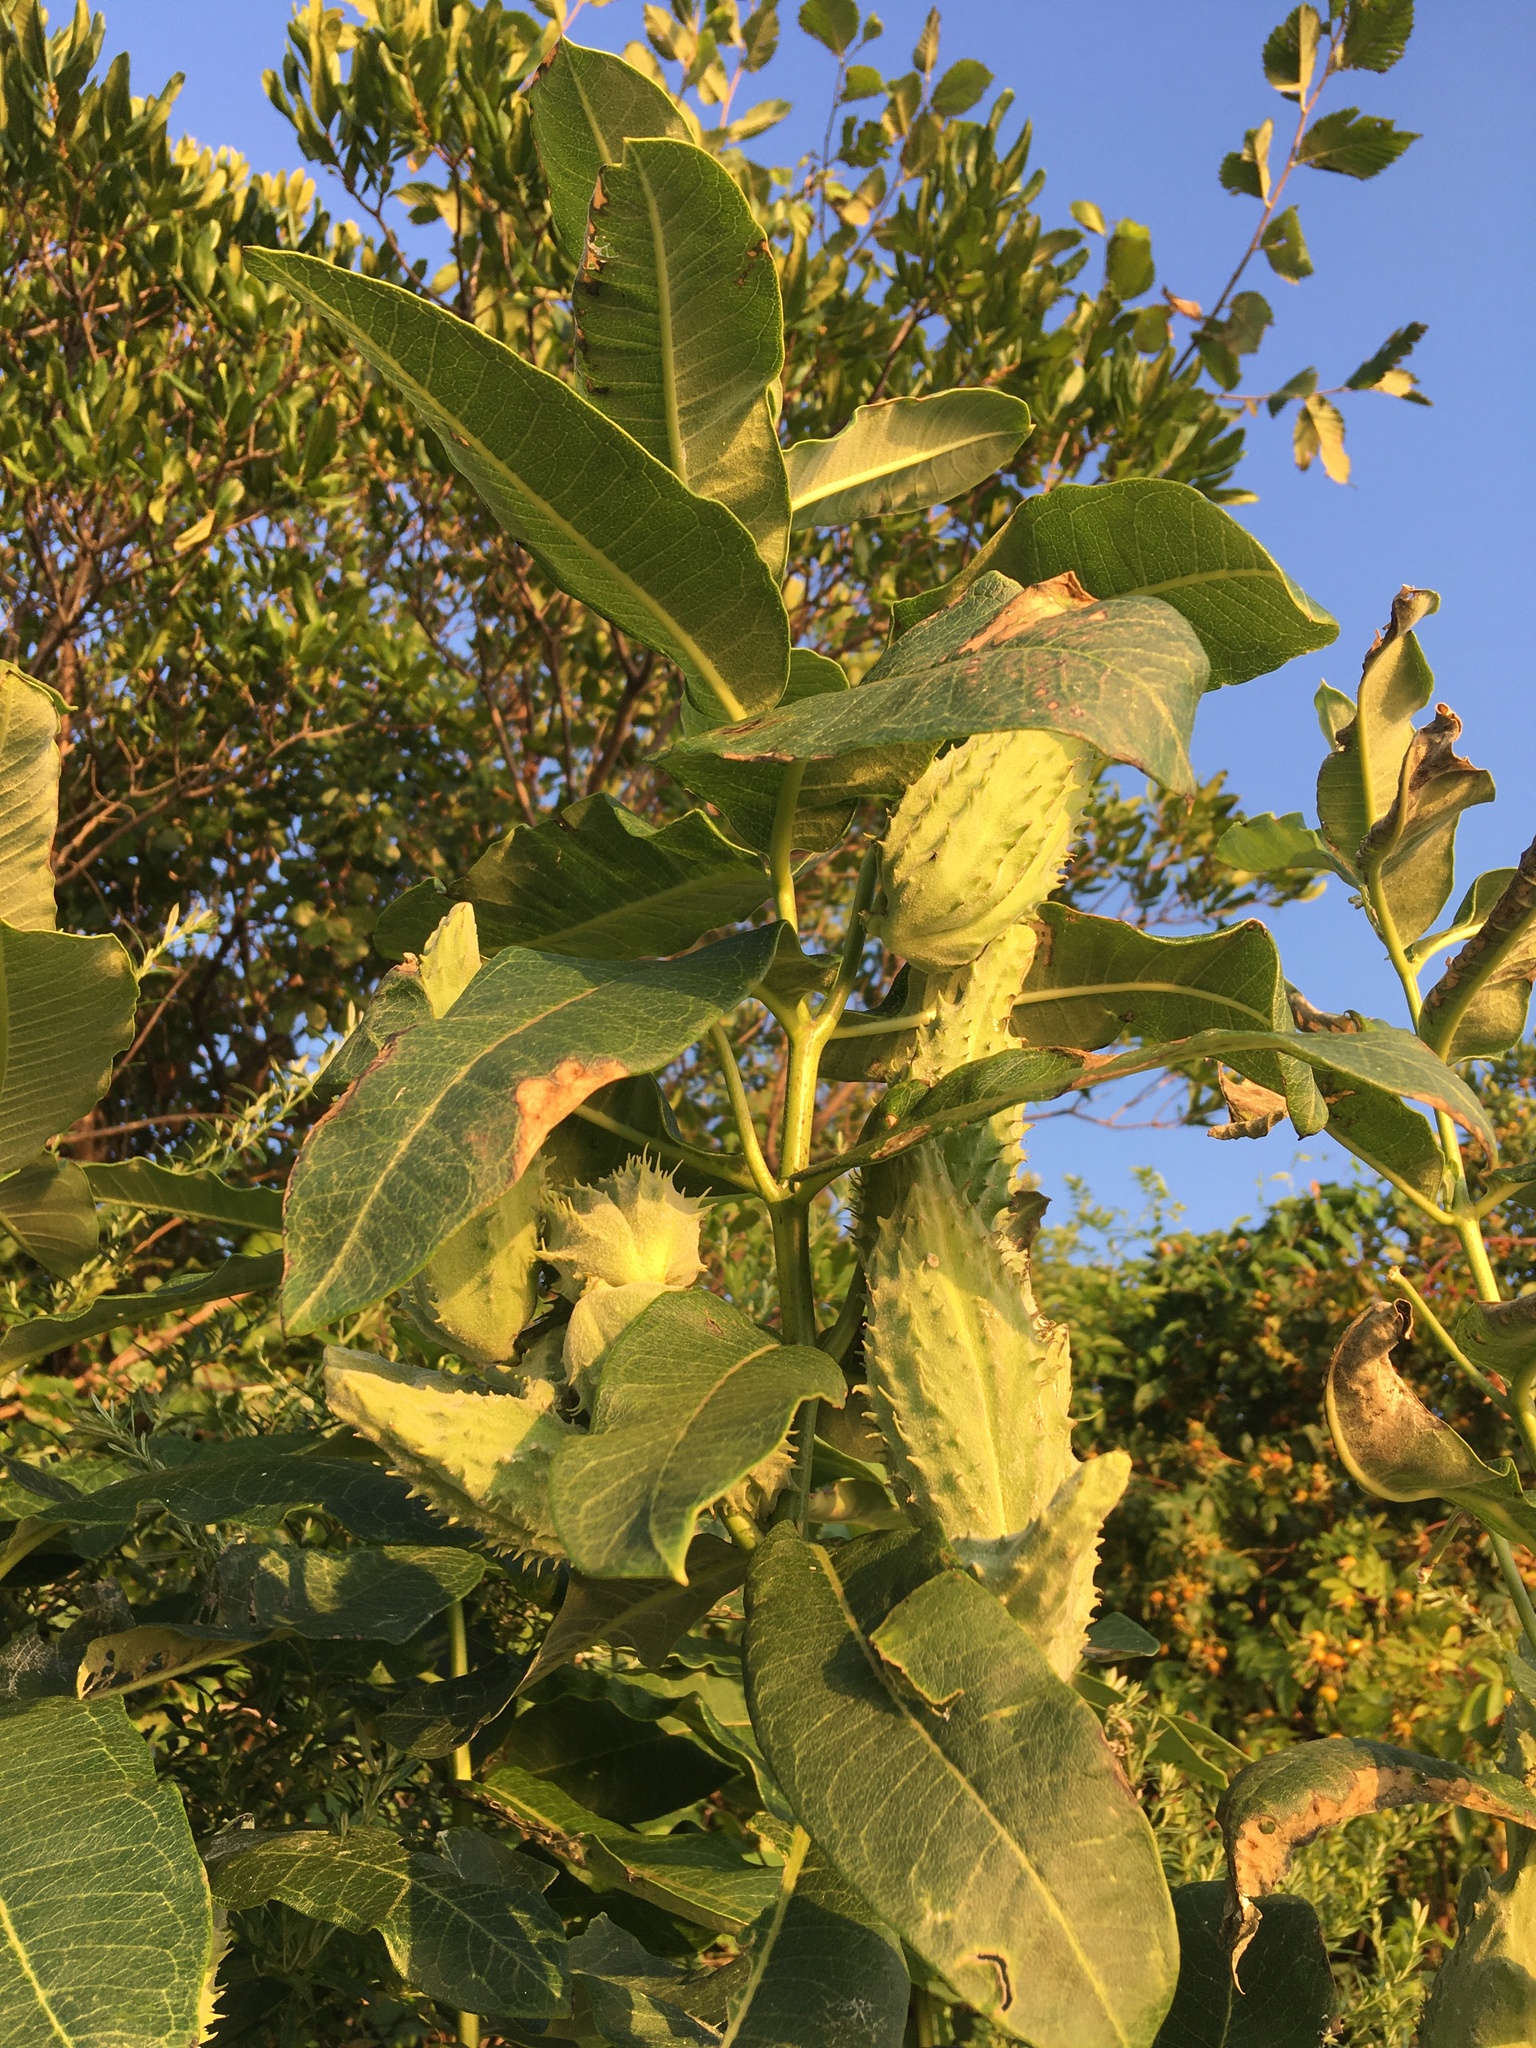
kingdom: Plantae
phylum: Tracheophyta
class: Magnoliopsida
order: Gentianales
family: Apocynaceae
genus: Asclepias
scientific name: Asclepias syriaca
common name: Common milkweed
